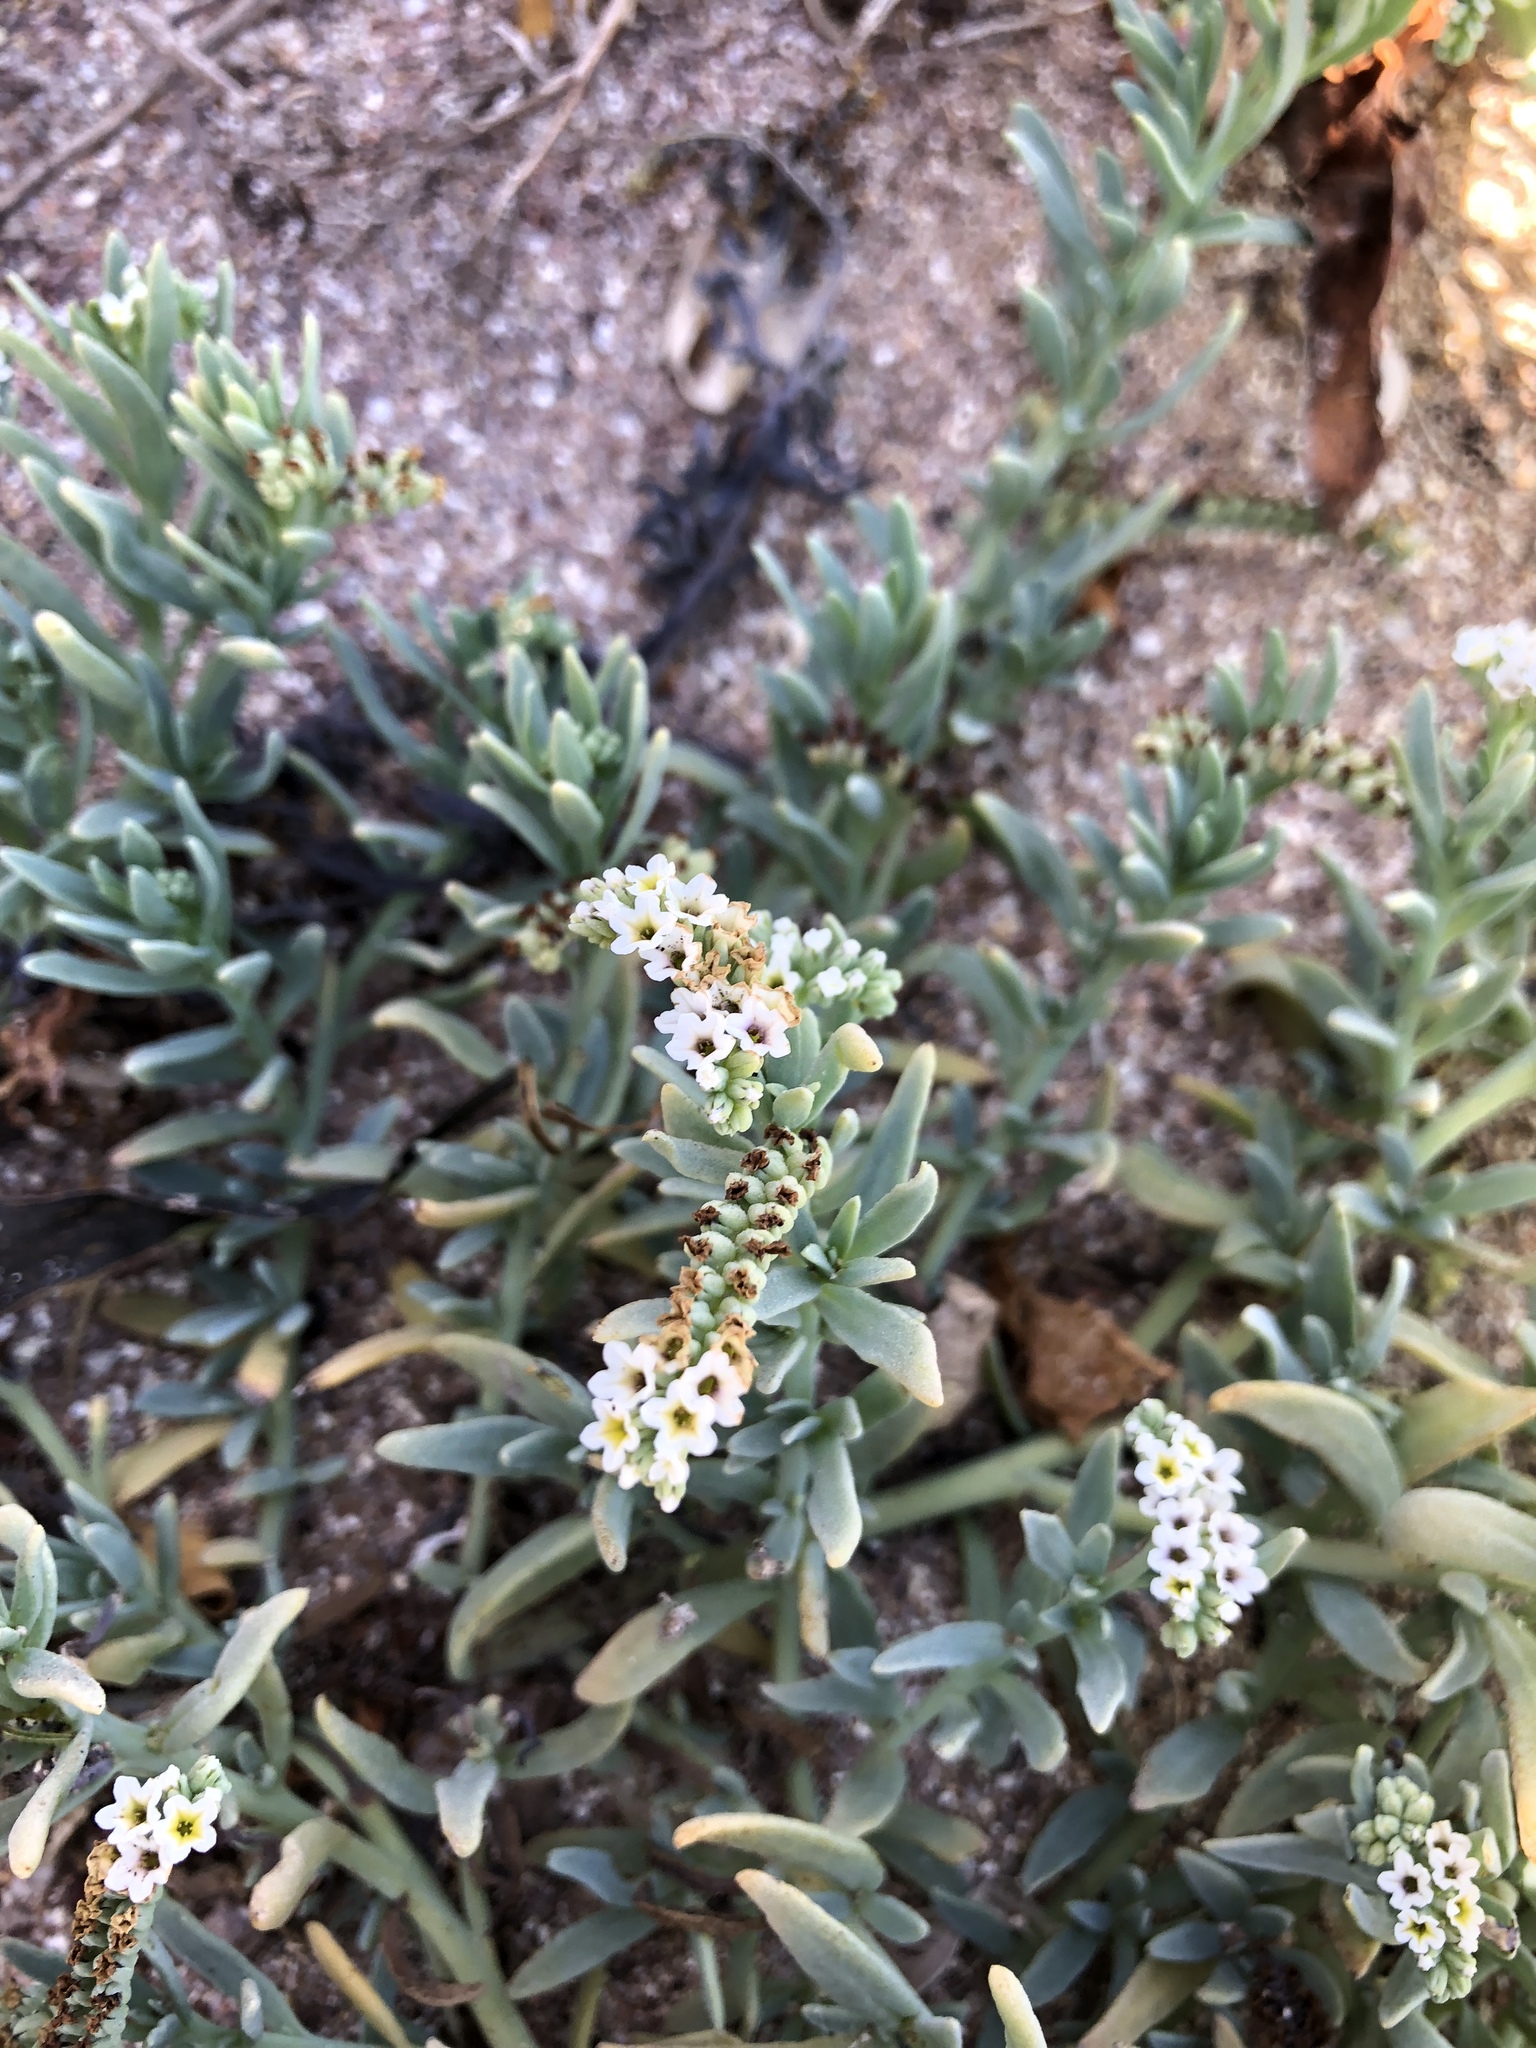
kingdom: Plantae
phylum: Tracheophyta
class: Magnoliopsida
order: Boraginales
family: Heliotropiaceae
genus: Heliotropium
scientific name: Heliotropium curassavicum
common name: Seaside heliotrope
